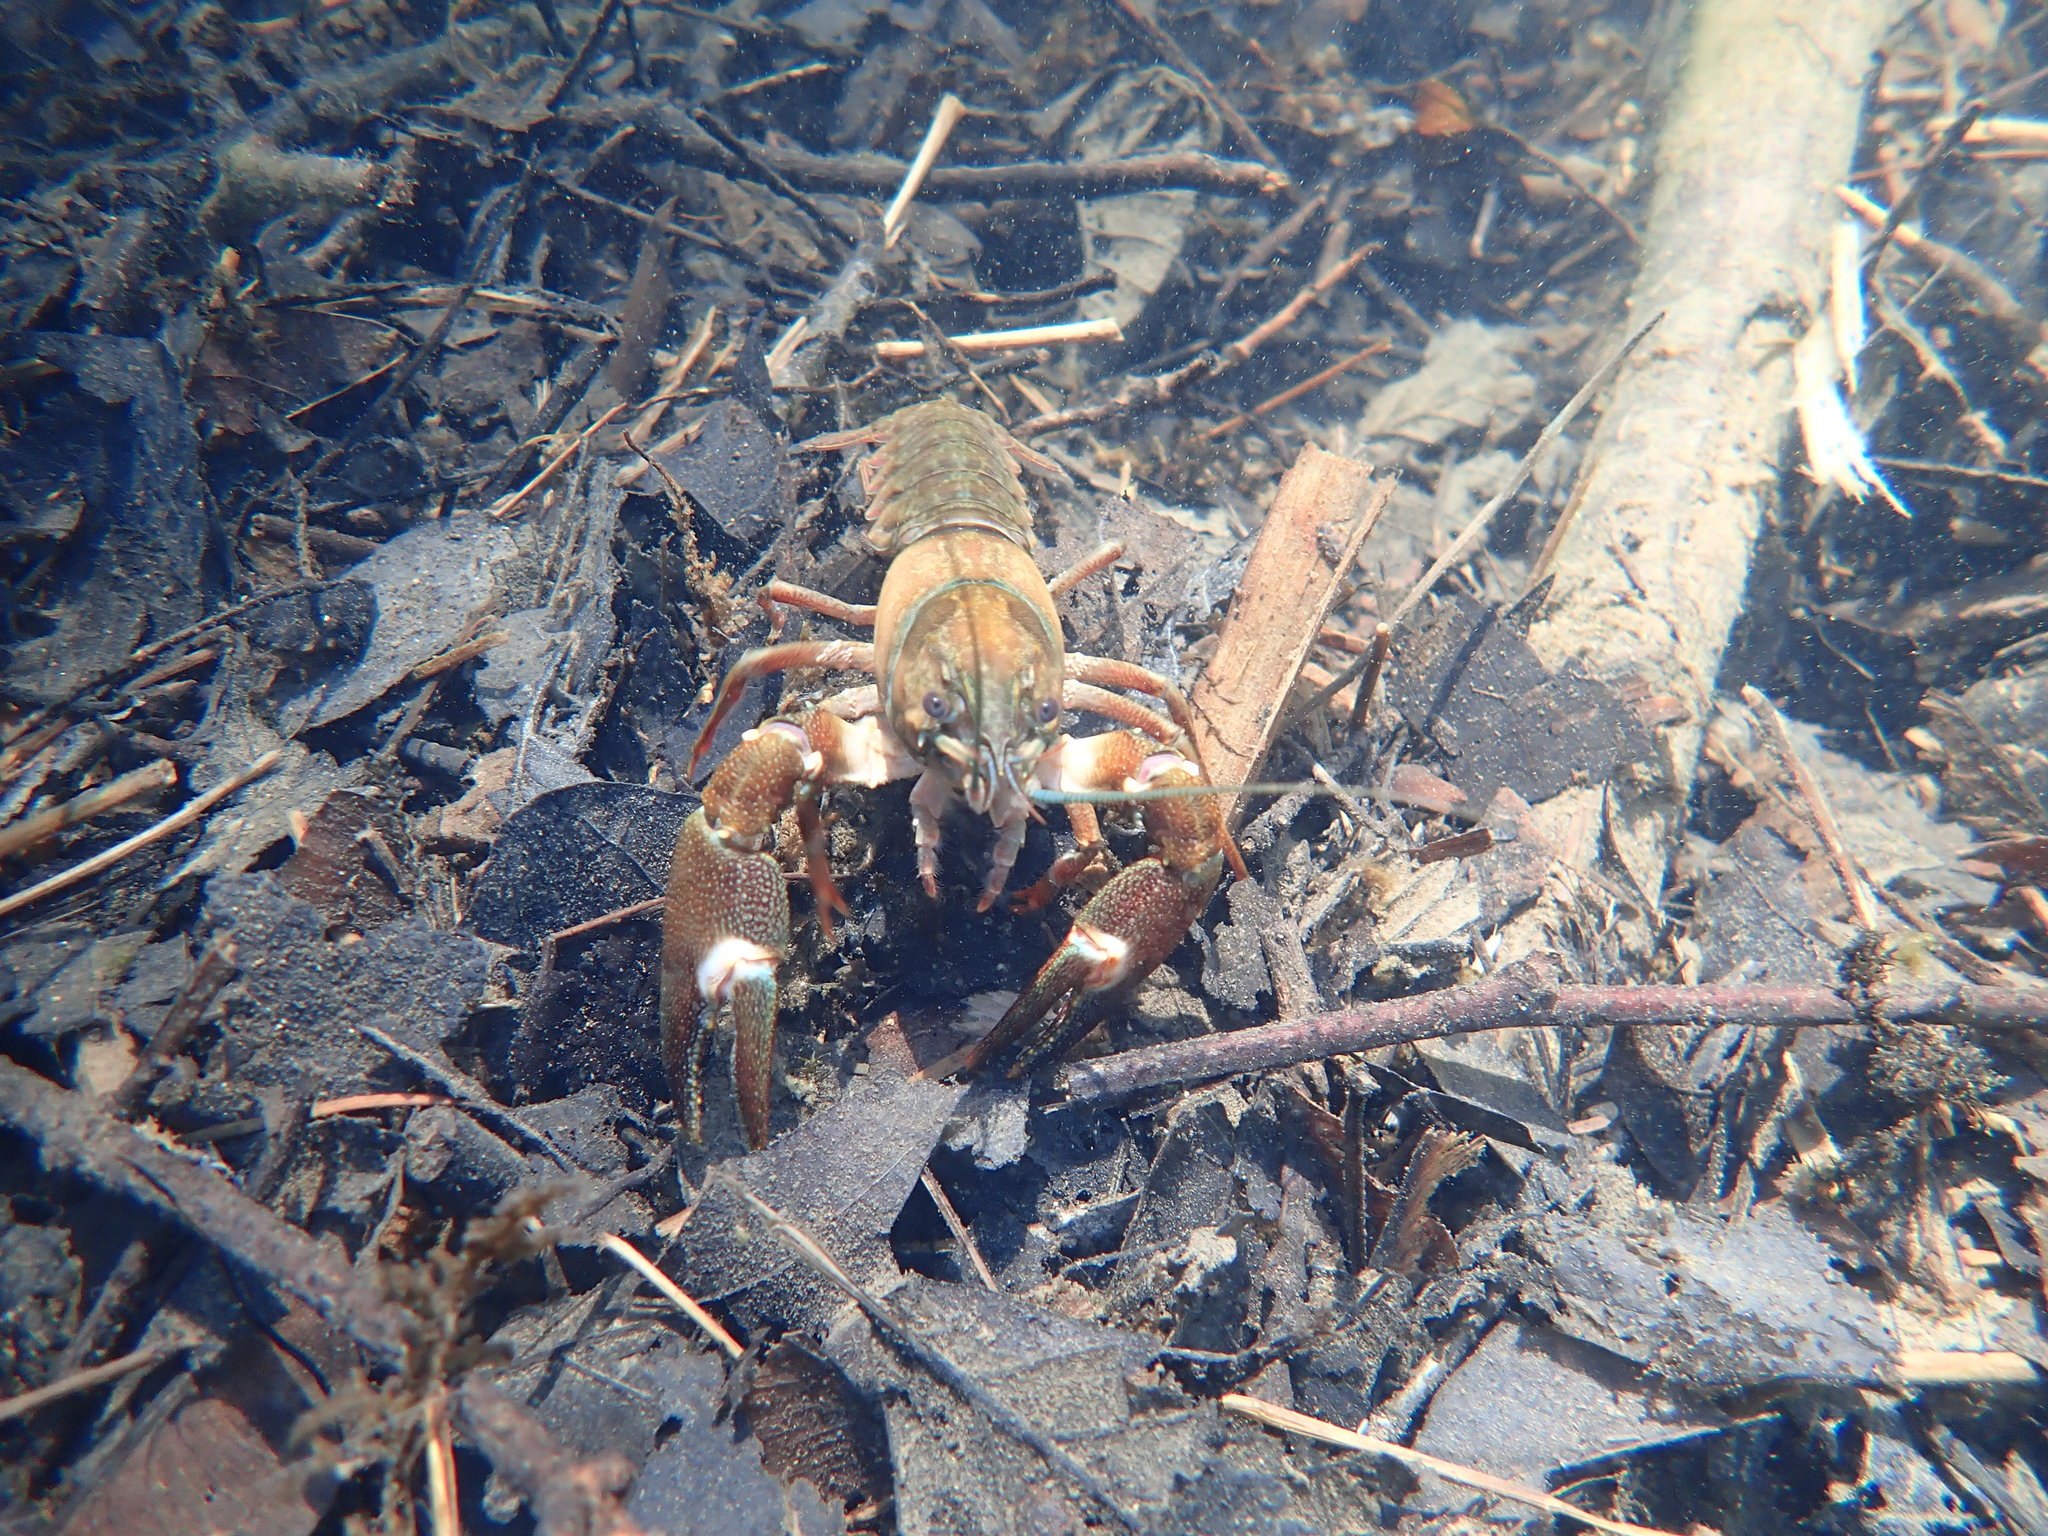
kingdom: Animalia
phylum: Arthropoda
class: Malacostraca
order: Decapoda
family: Astacidae
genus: Pacifastacus
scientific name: Pacifastacus leniusculus
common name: Signal crayfish
